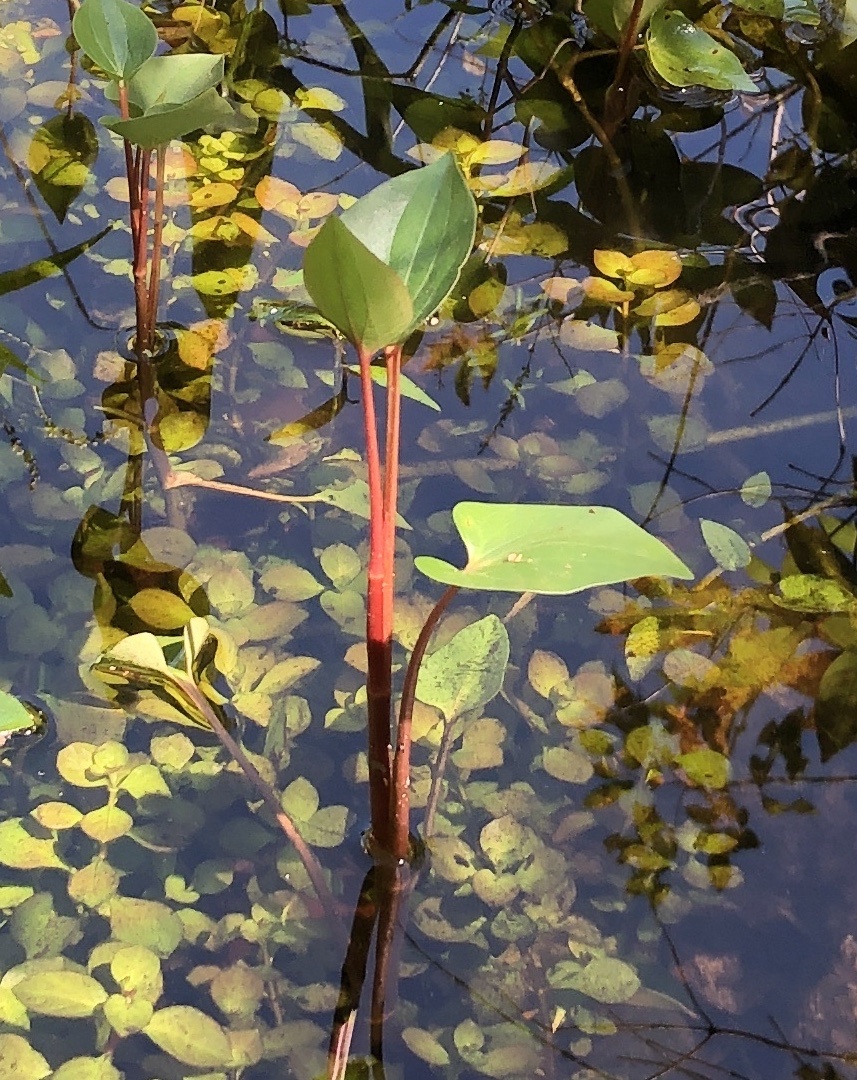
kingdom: Plantae
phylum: Tracheophyta
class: Magnoliopsida
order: Piperales
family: Saururaceae
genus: Saururus
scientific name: Saururus cernuus
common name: Lizard's-tail
